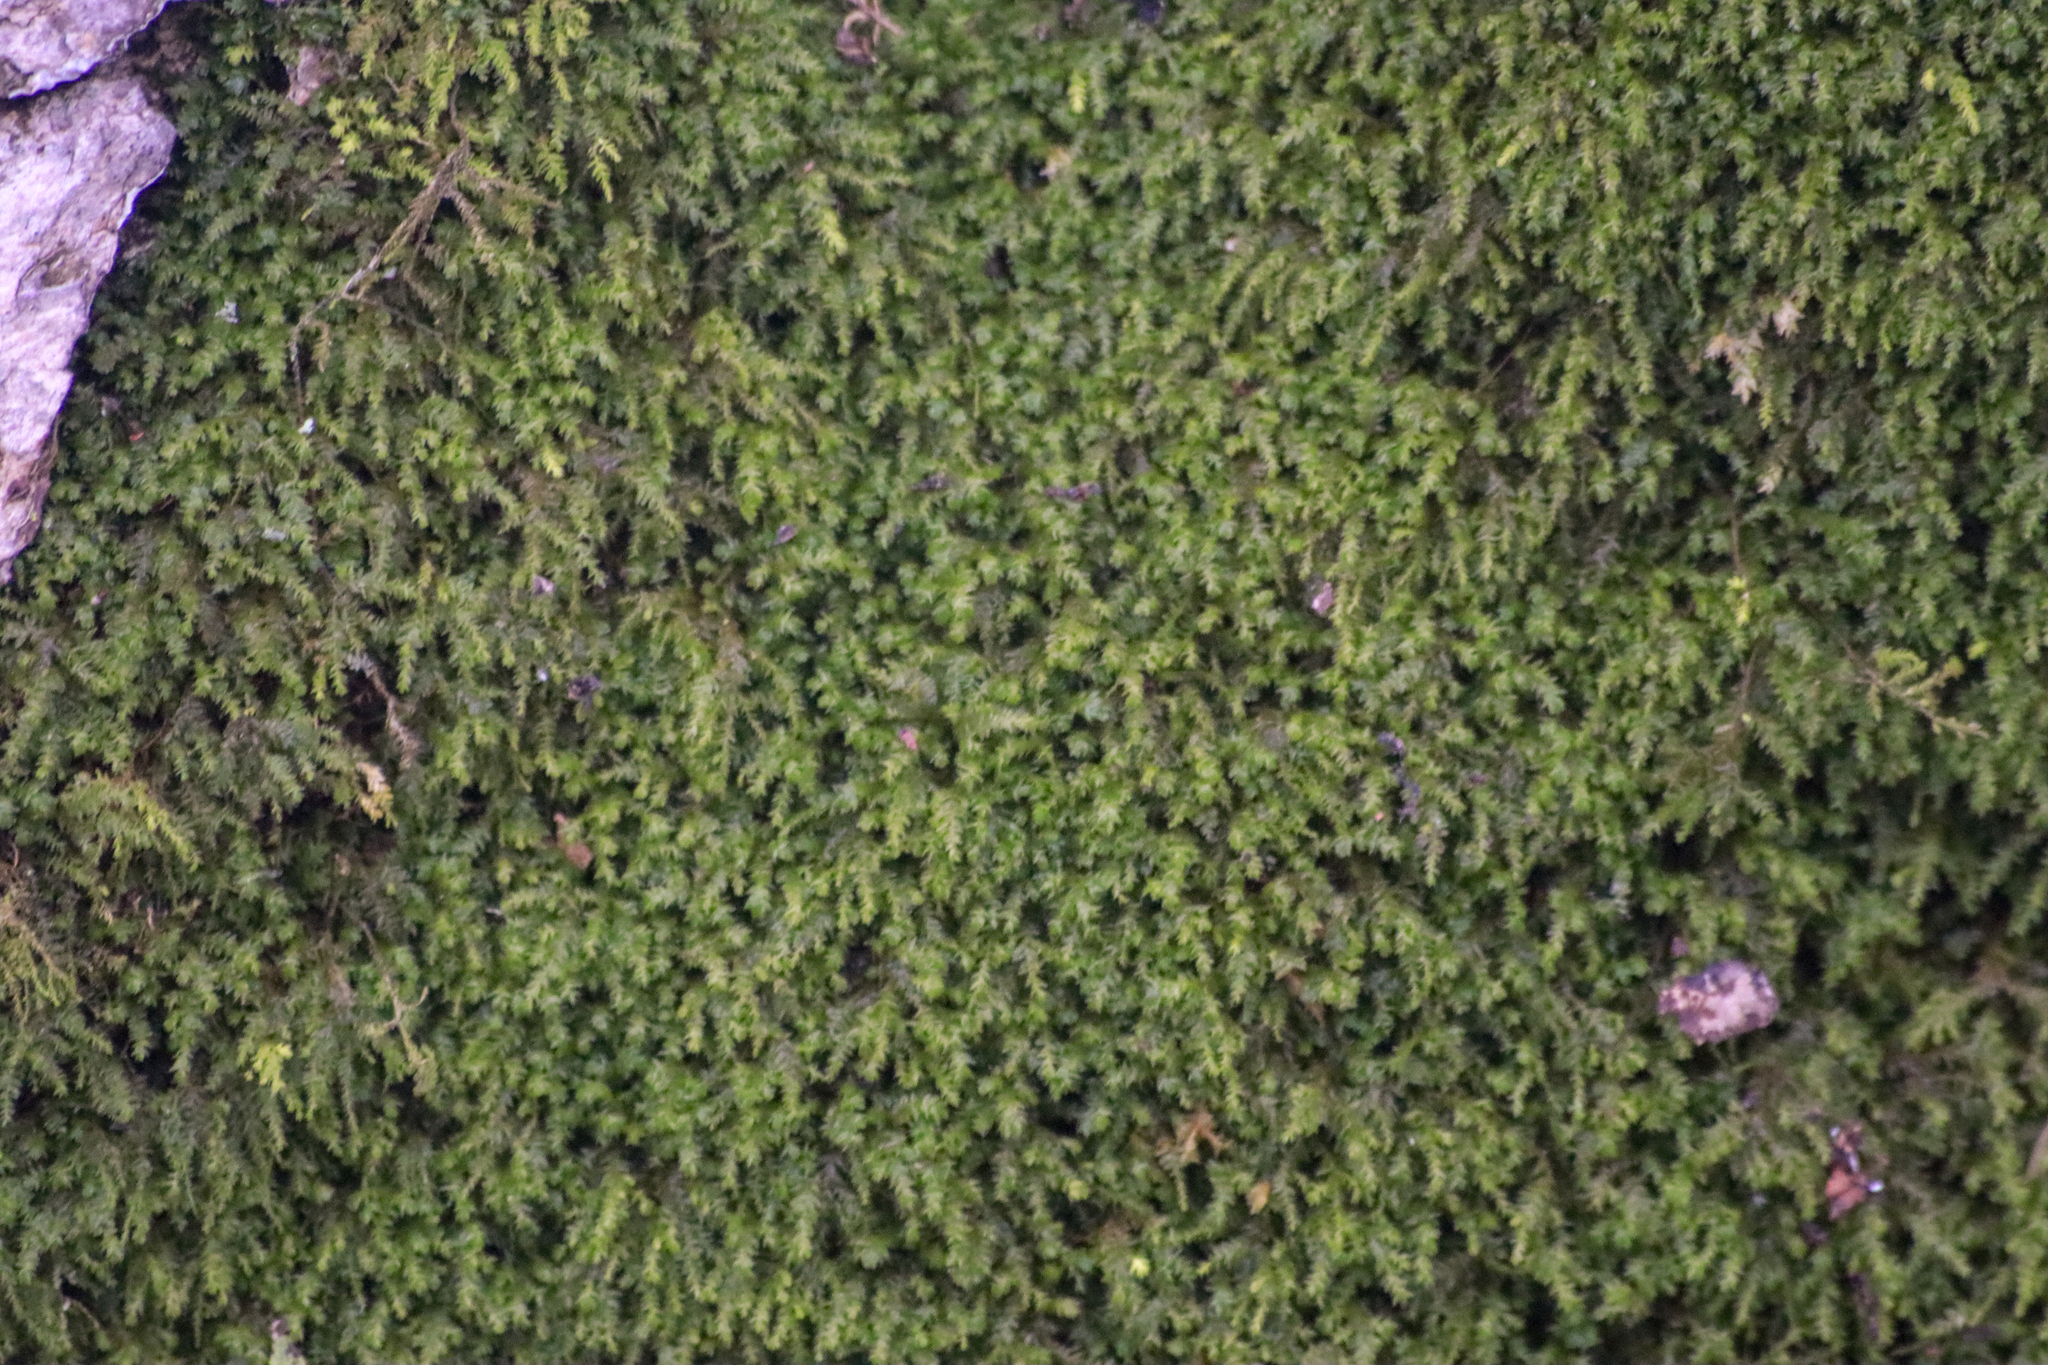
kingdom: Plantae
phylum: Bryophyta
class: Bryopsida
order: Hypnales
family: Neckeraceae
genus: Pseudanomodon
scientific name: Pseudanomodon attenuatus
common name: Tree-skirt moss
